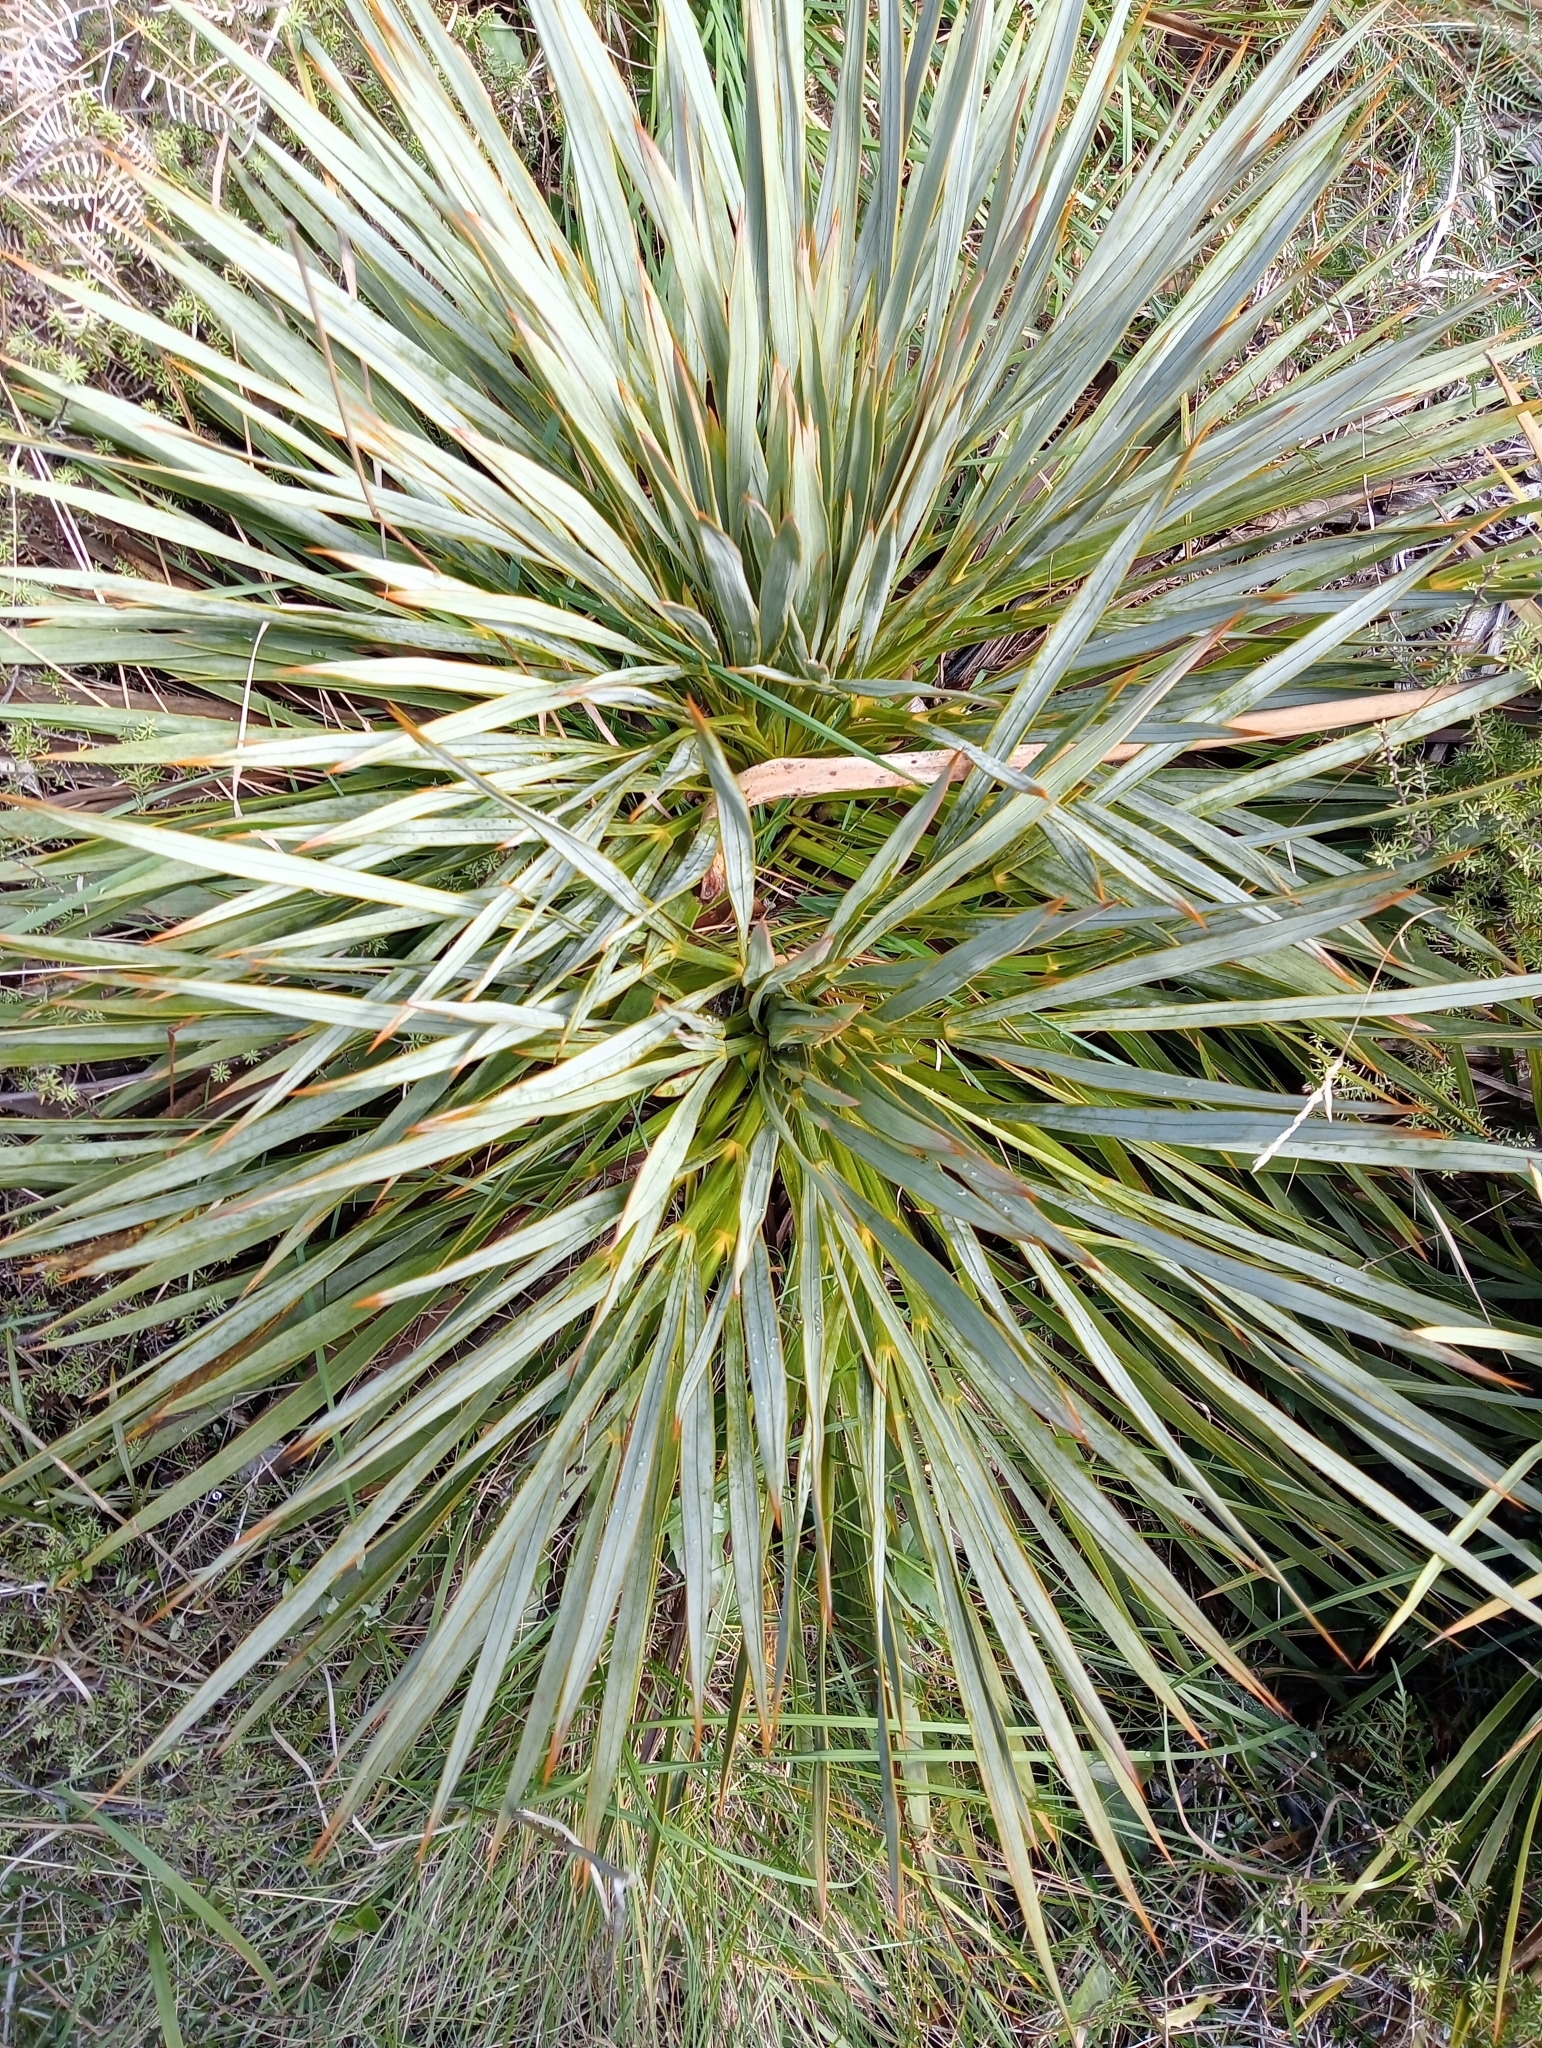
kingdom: Plantae
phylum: Tracheophyta
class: Magnoliopsida
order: Apiales
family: Apiaceae
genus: Aciphylla
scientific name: Aciphylla aurea
